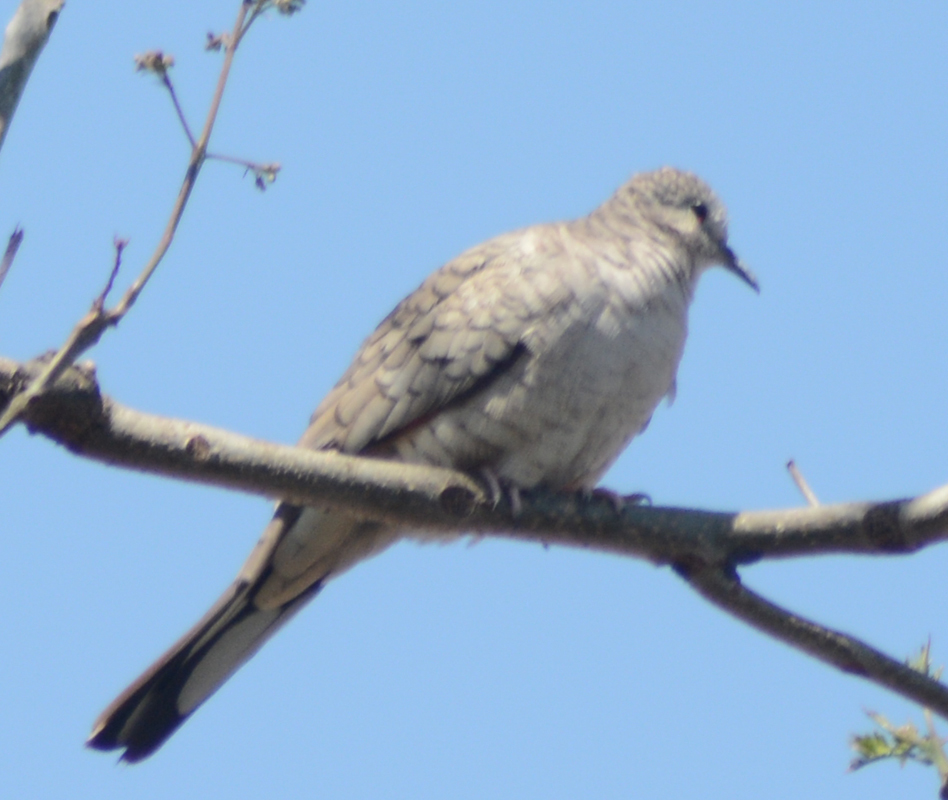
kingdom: Animalia
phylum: Chordata
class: Aves
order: Columbiformes
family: Columbidae
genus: Columbina
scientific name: Columbina inca
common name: Inca dove
